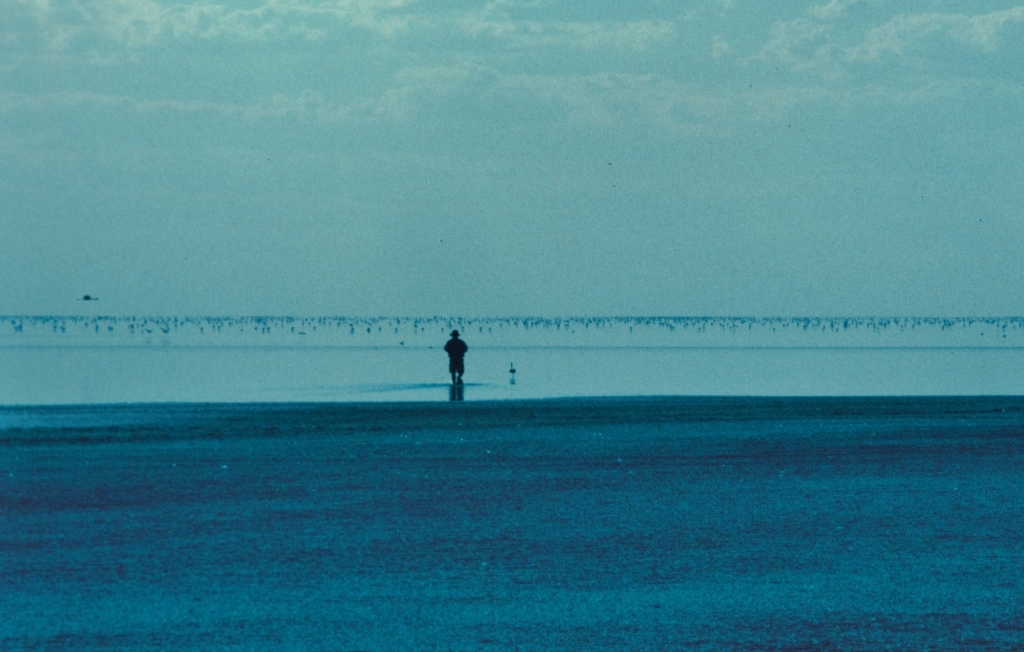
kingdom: Animalia
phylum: Chordata
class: Aves
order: Phoenicopteriformes
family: Phoenicopteridae
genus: Phoeniconaias
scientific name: Phoeniconaias minor
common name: Lesser flamingo
